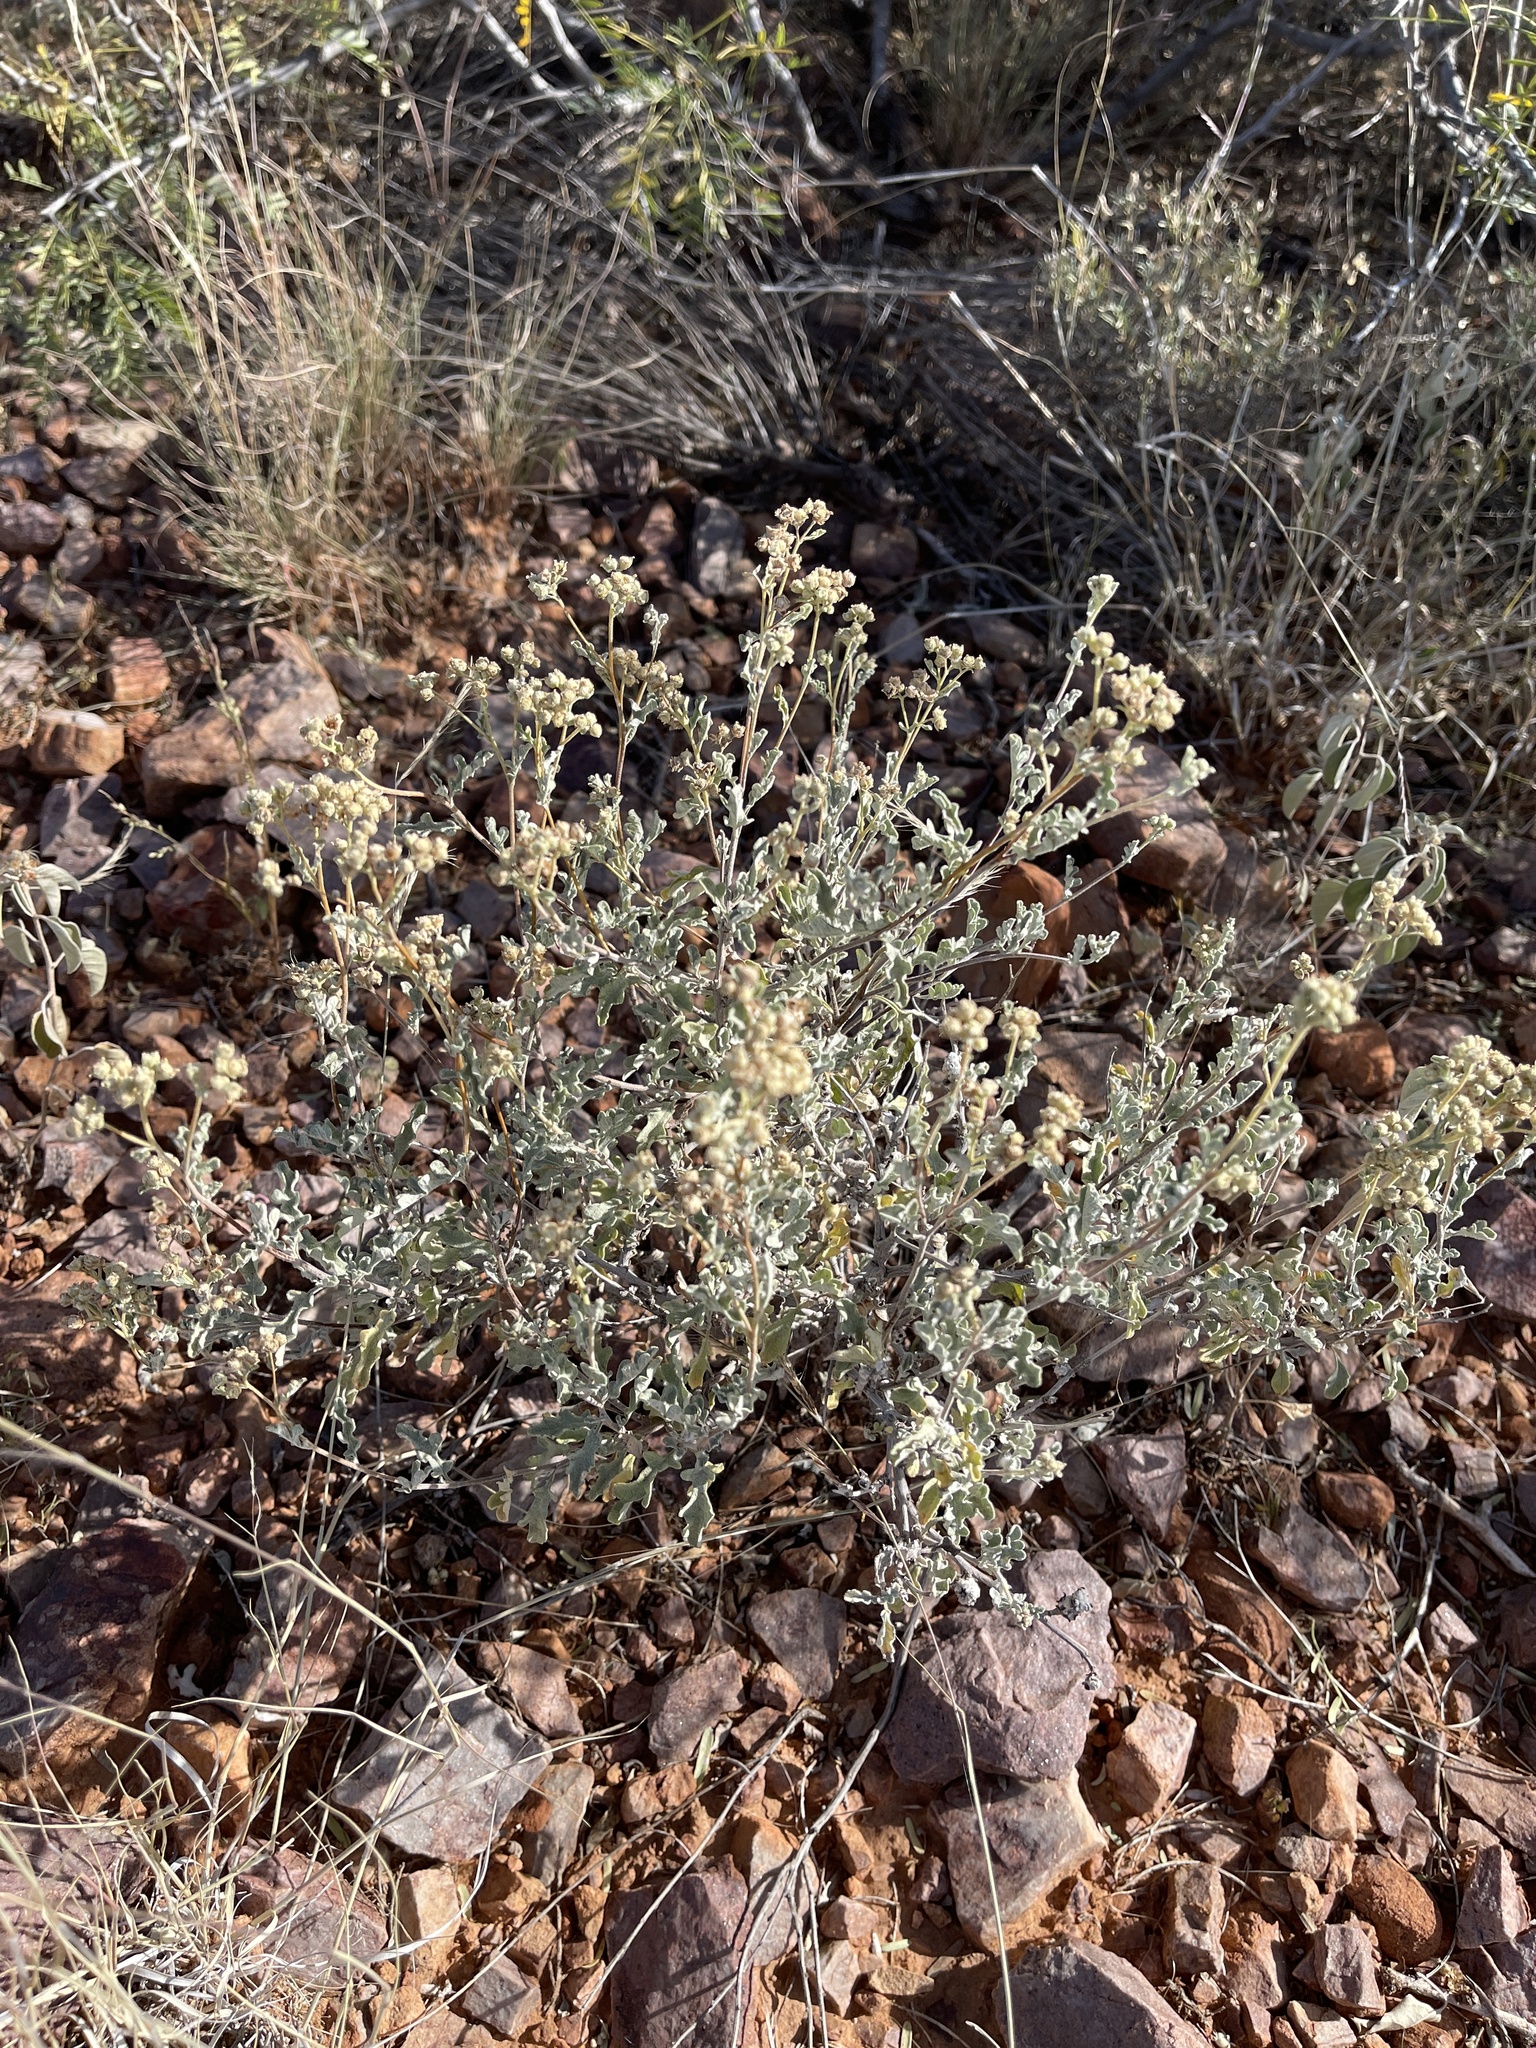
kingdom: Plantae
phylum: Tracheophyta
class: Magnoliopsida
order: Asterales
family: Asteraceae
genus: Parthenium
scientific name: Parthenium incanum
